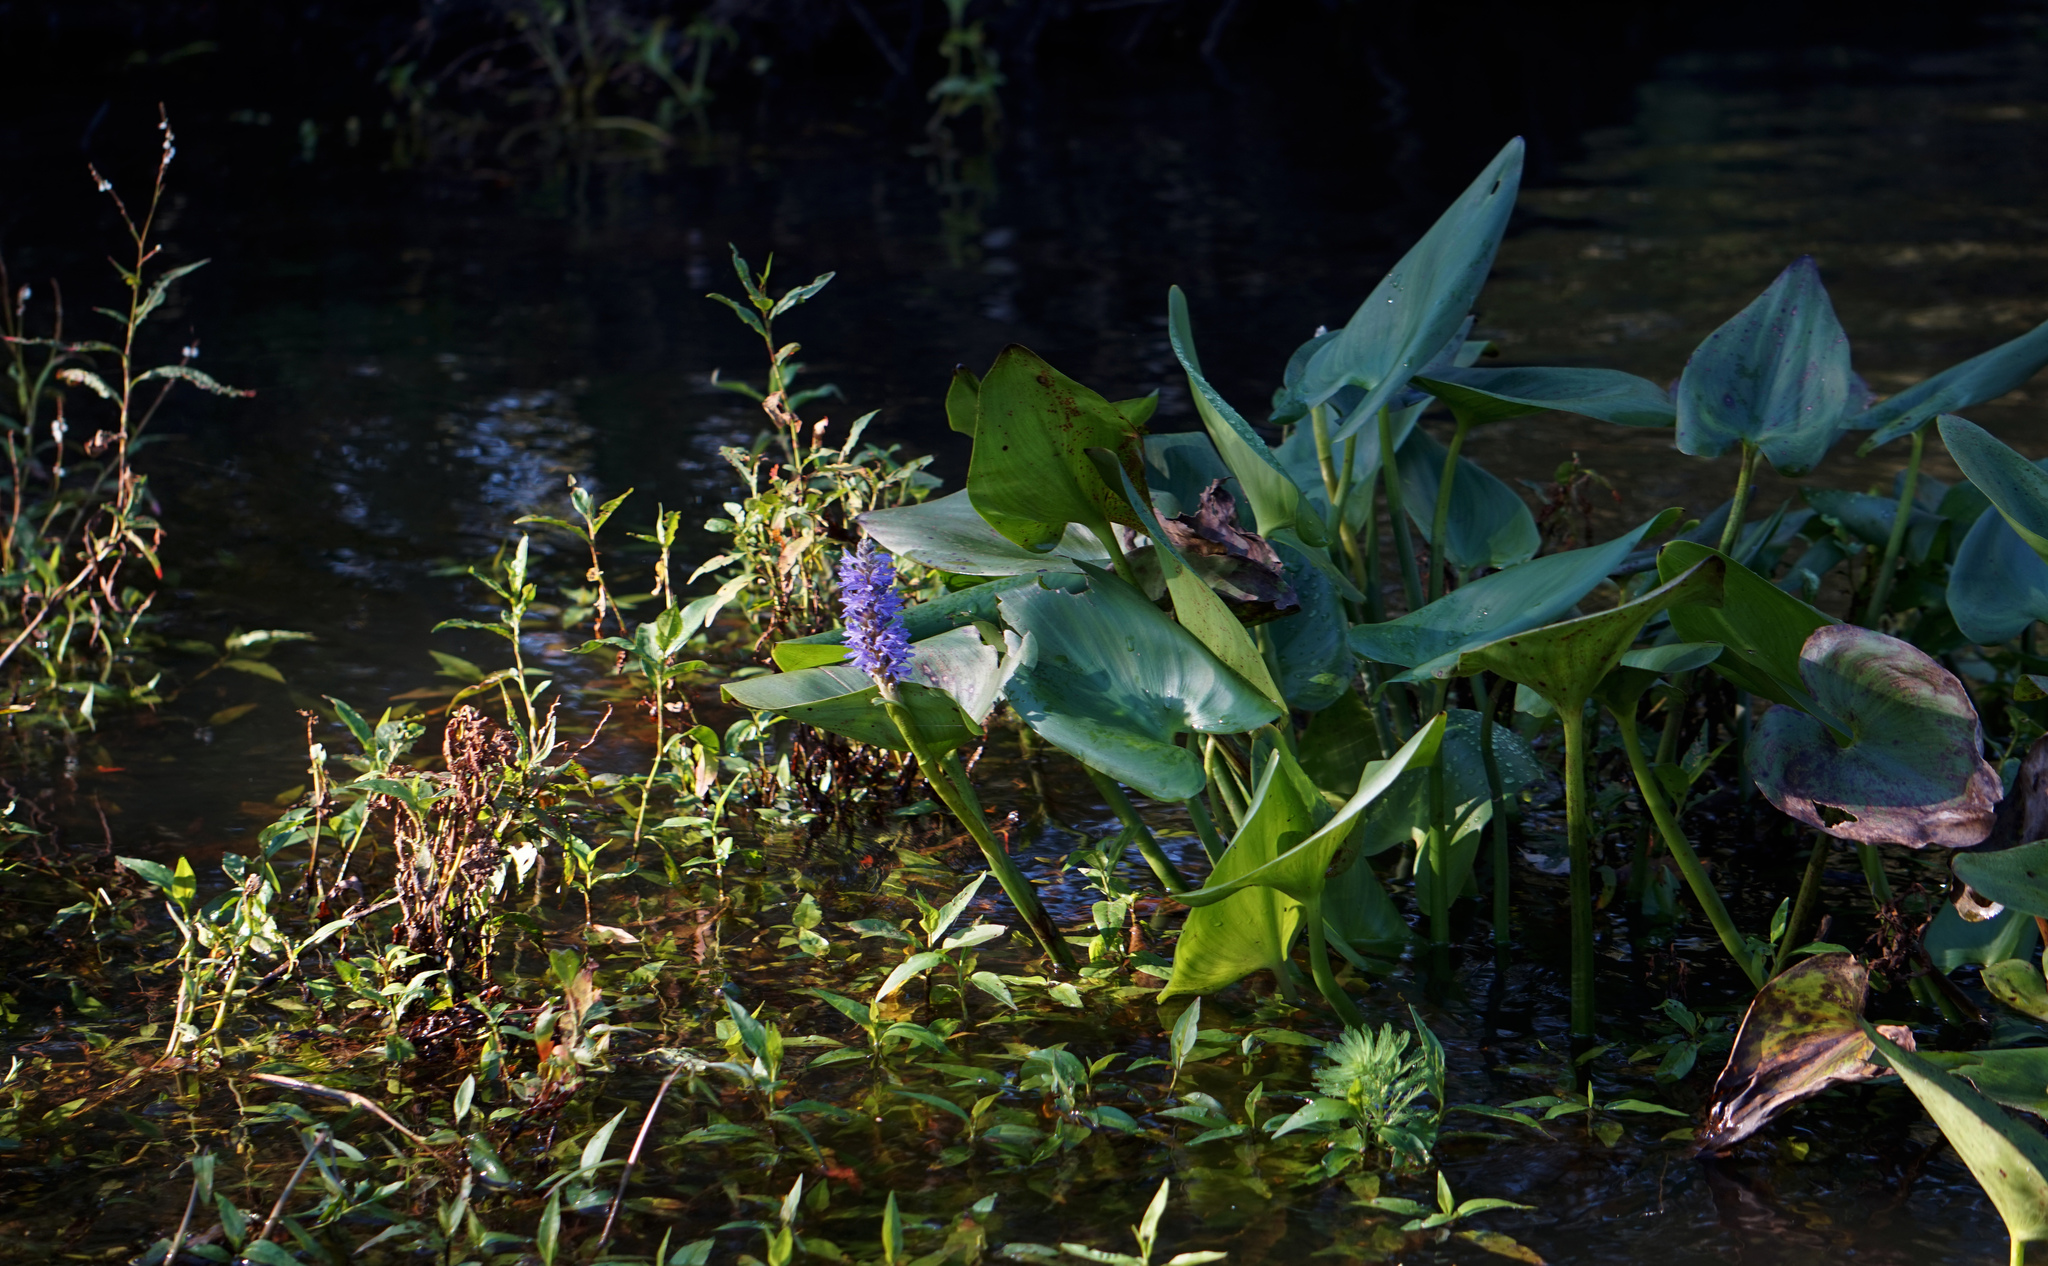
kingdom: Plantae
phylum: Tracheophyta
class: Liliopsida
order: Commelinales
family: Pontederiaceae
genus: Pontederia
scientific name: Pontederia cordata
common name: Pickerelweed
